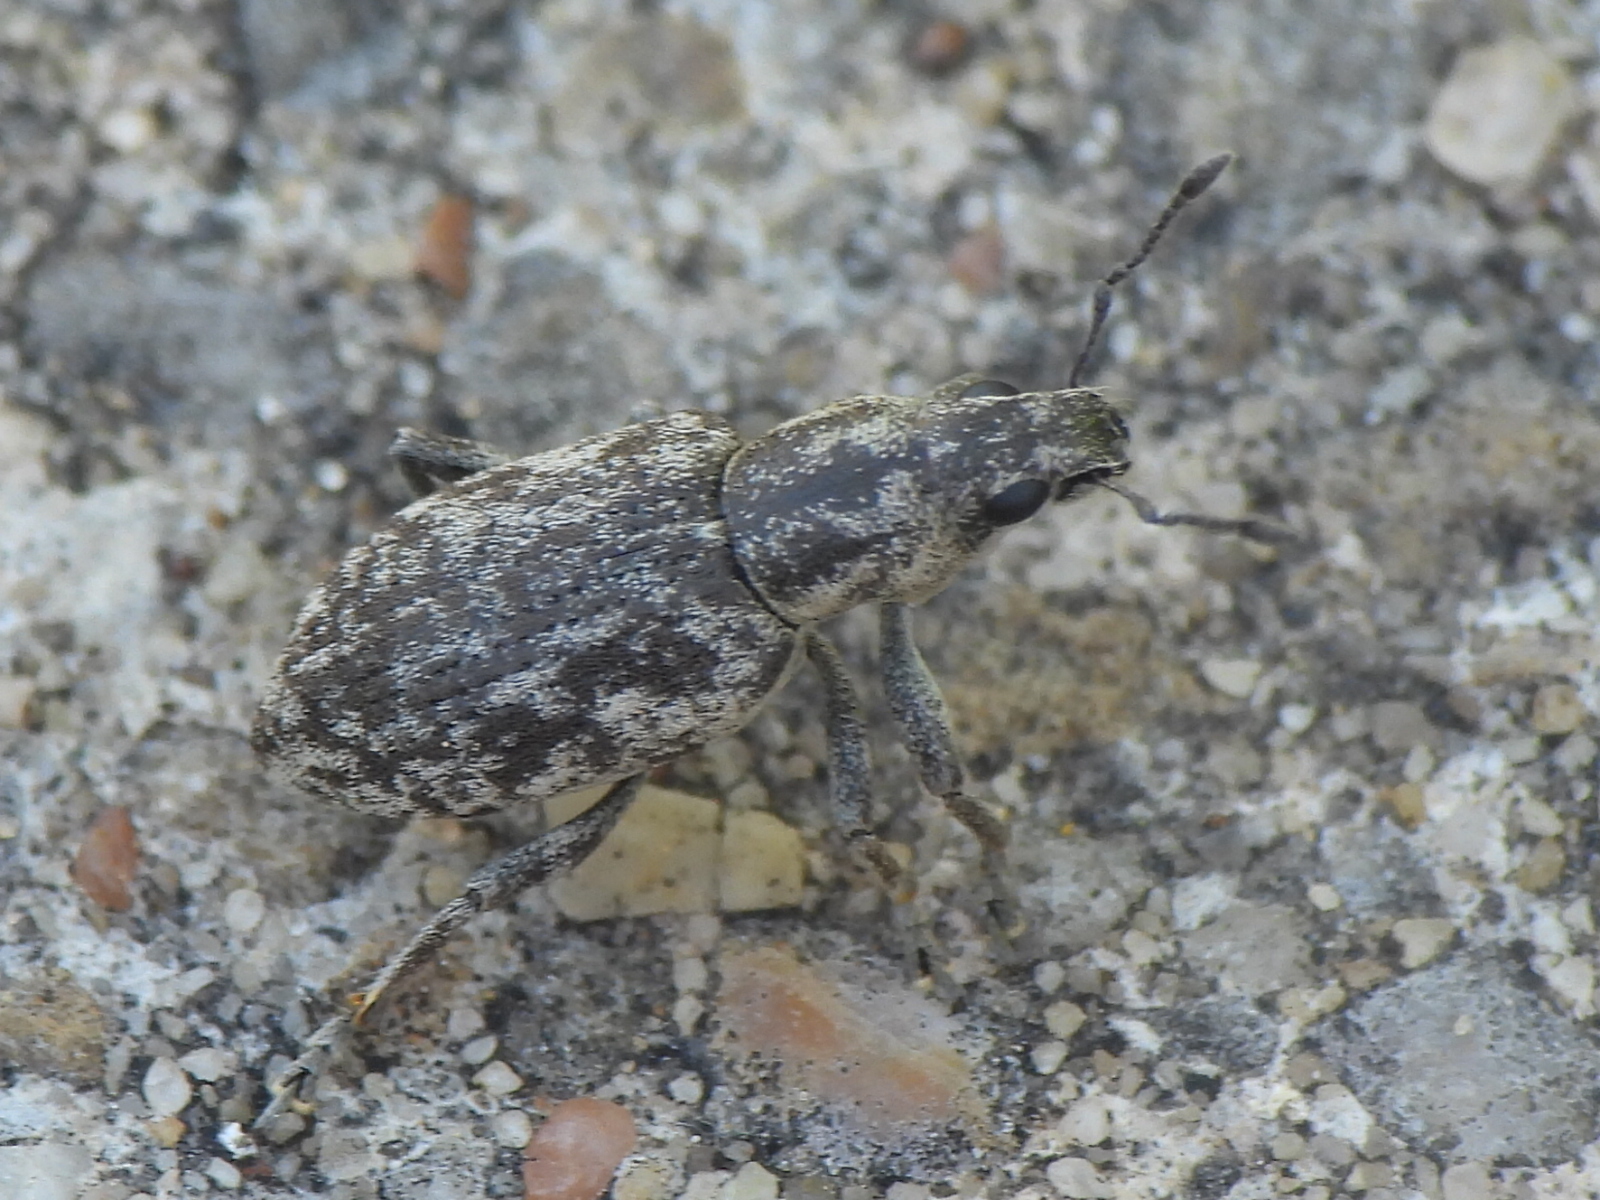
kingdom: Animalia
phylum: Arthropoda
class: Insecta
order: Coleoptera
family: Curculionidae
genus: Tanymecus
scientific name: Tanymecus confusus
